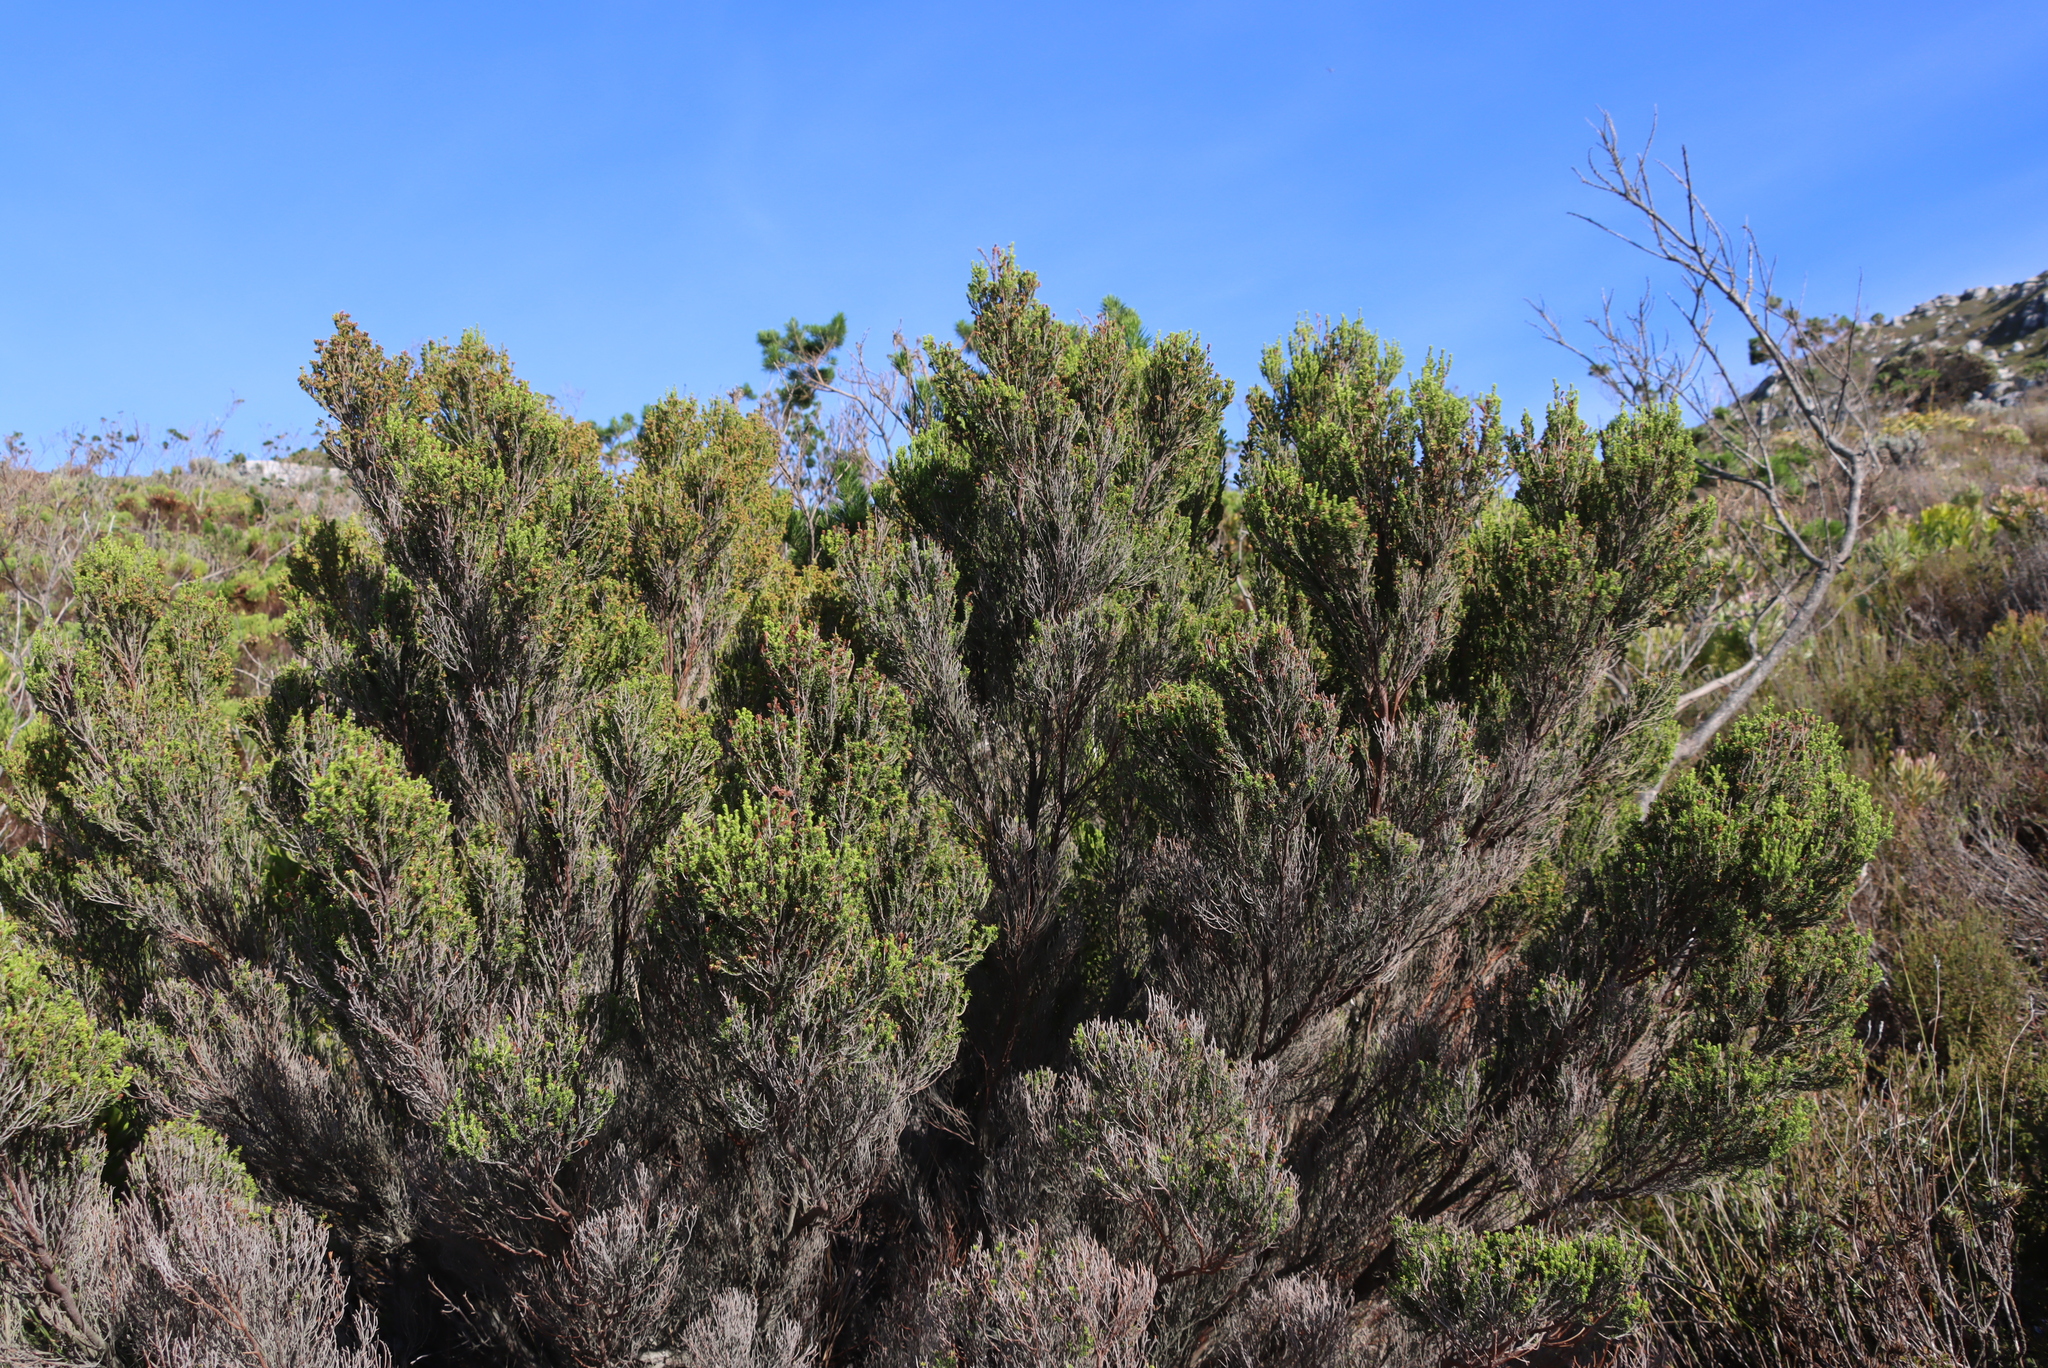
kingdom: Plantae
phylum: Tracheophyta
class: Magnoliopsida
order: Ericales
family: Ericaceae
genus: Erica
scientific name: Erica tristis
